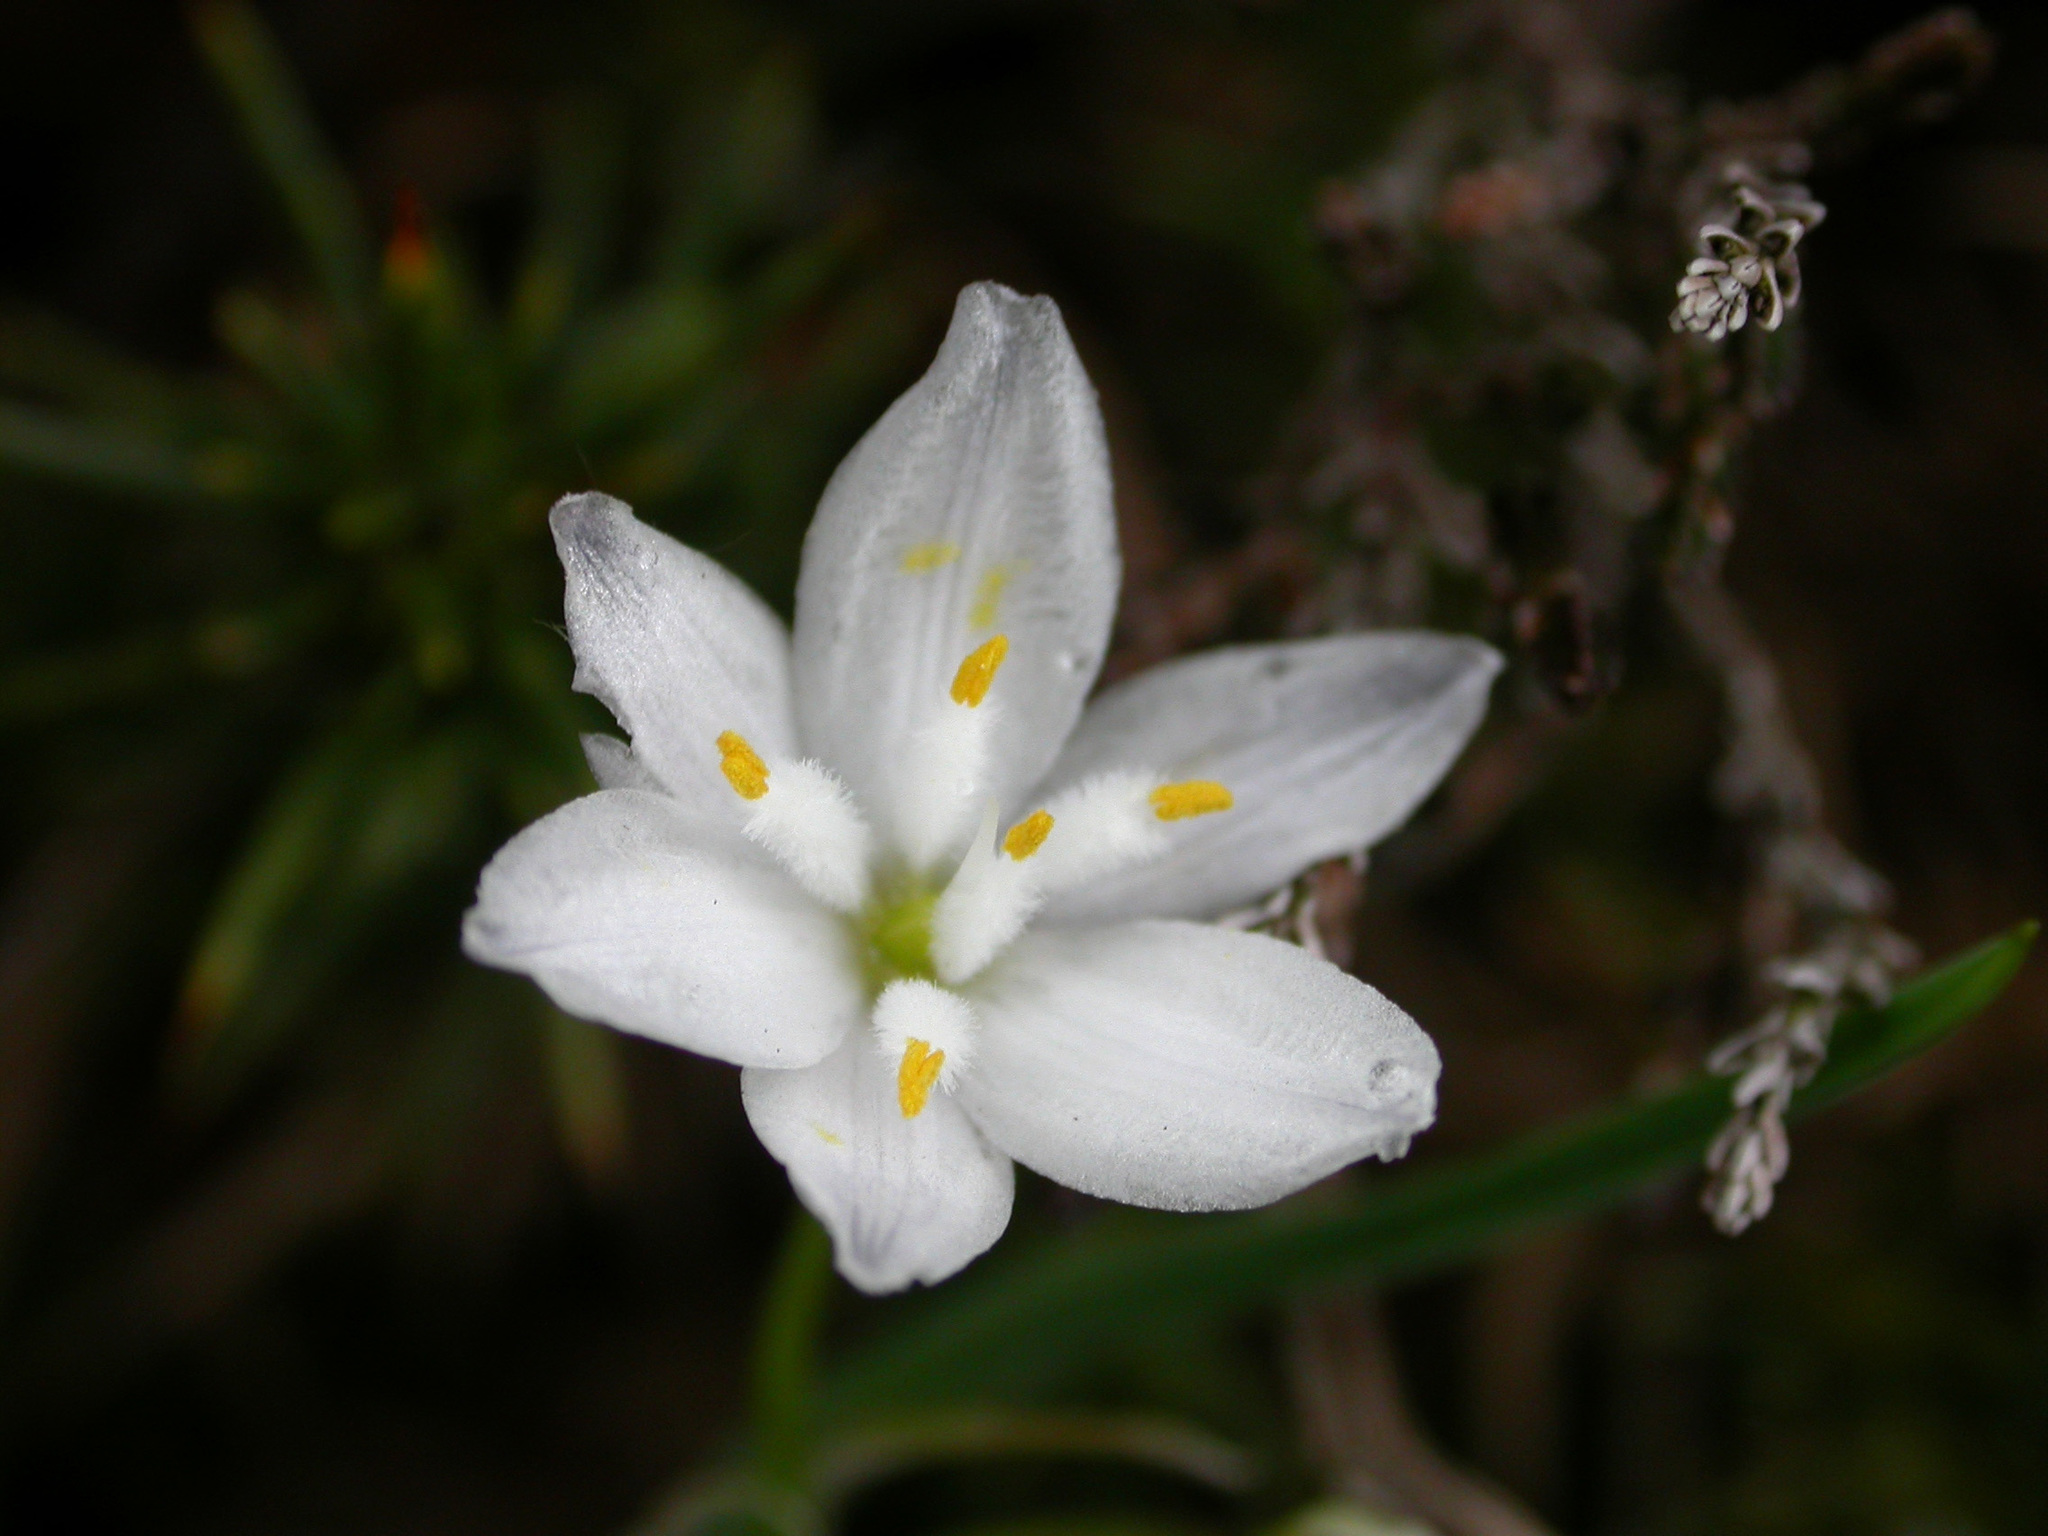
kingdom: Plantae
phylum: Tracheophyta
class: Liliopsida
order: Asparagales
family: Asphodelaceae
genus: Simethis
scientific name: Simethis mattiazzii
